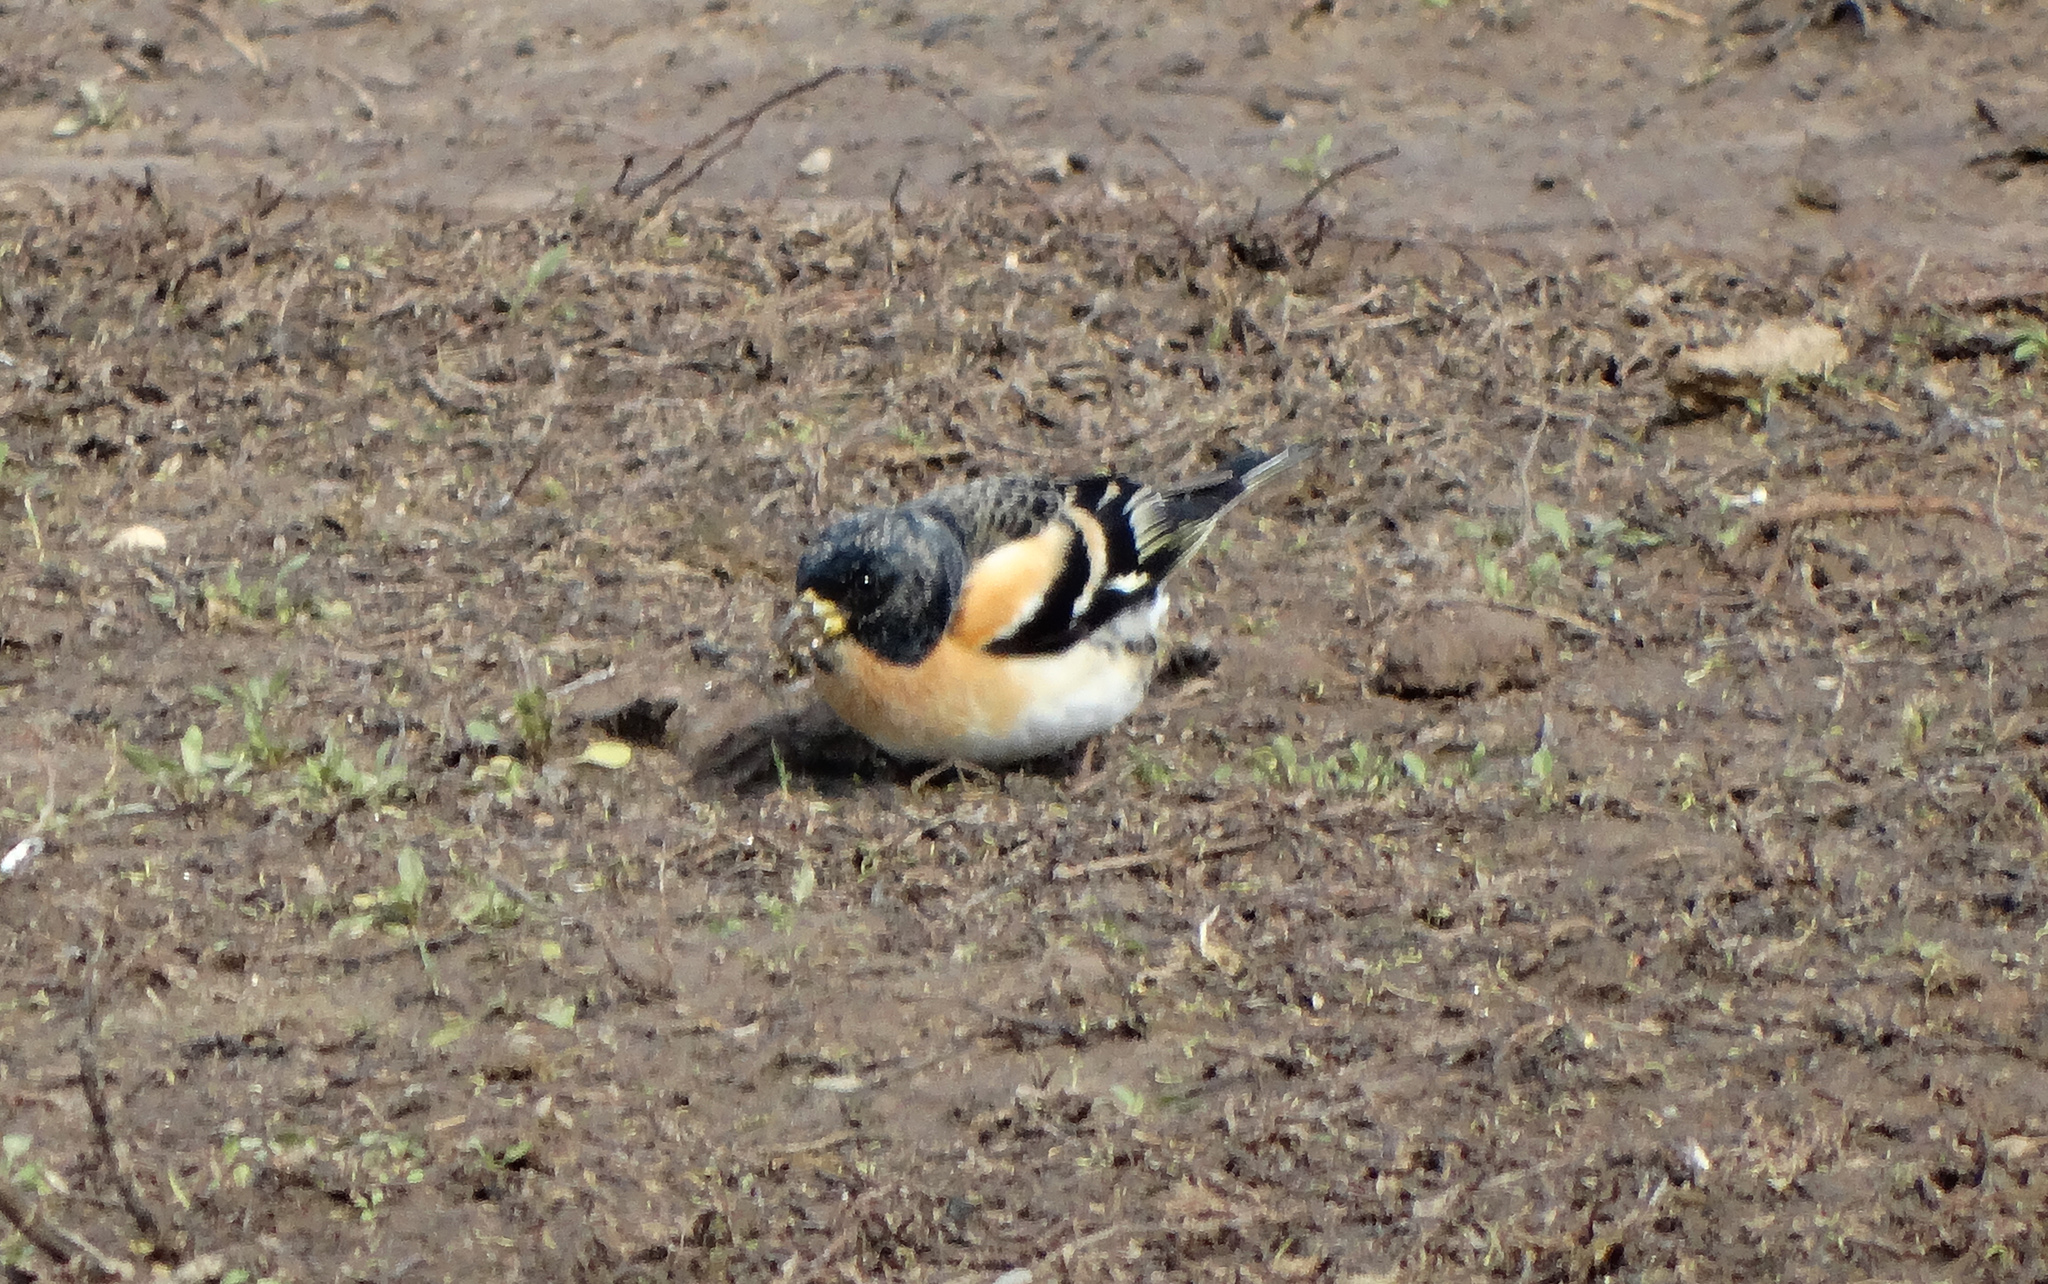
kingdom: Animalia
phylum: Chordata
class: Aves
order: Passeriformes
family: Fringillidae
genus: Fringilla
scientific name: Fringilla montifringilla
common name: Brambling
